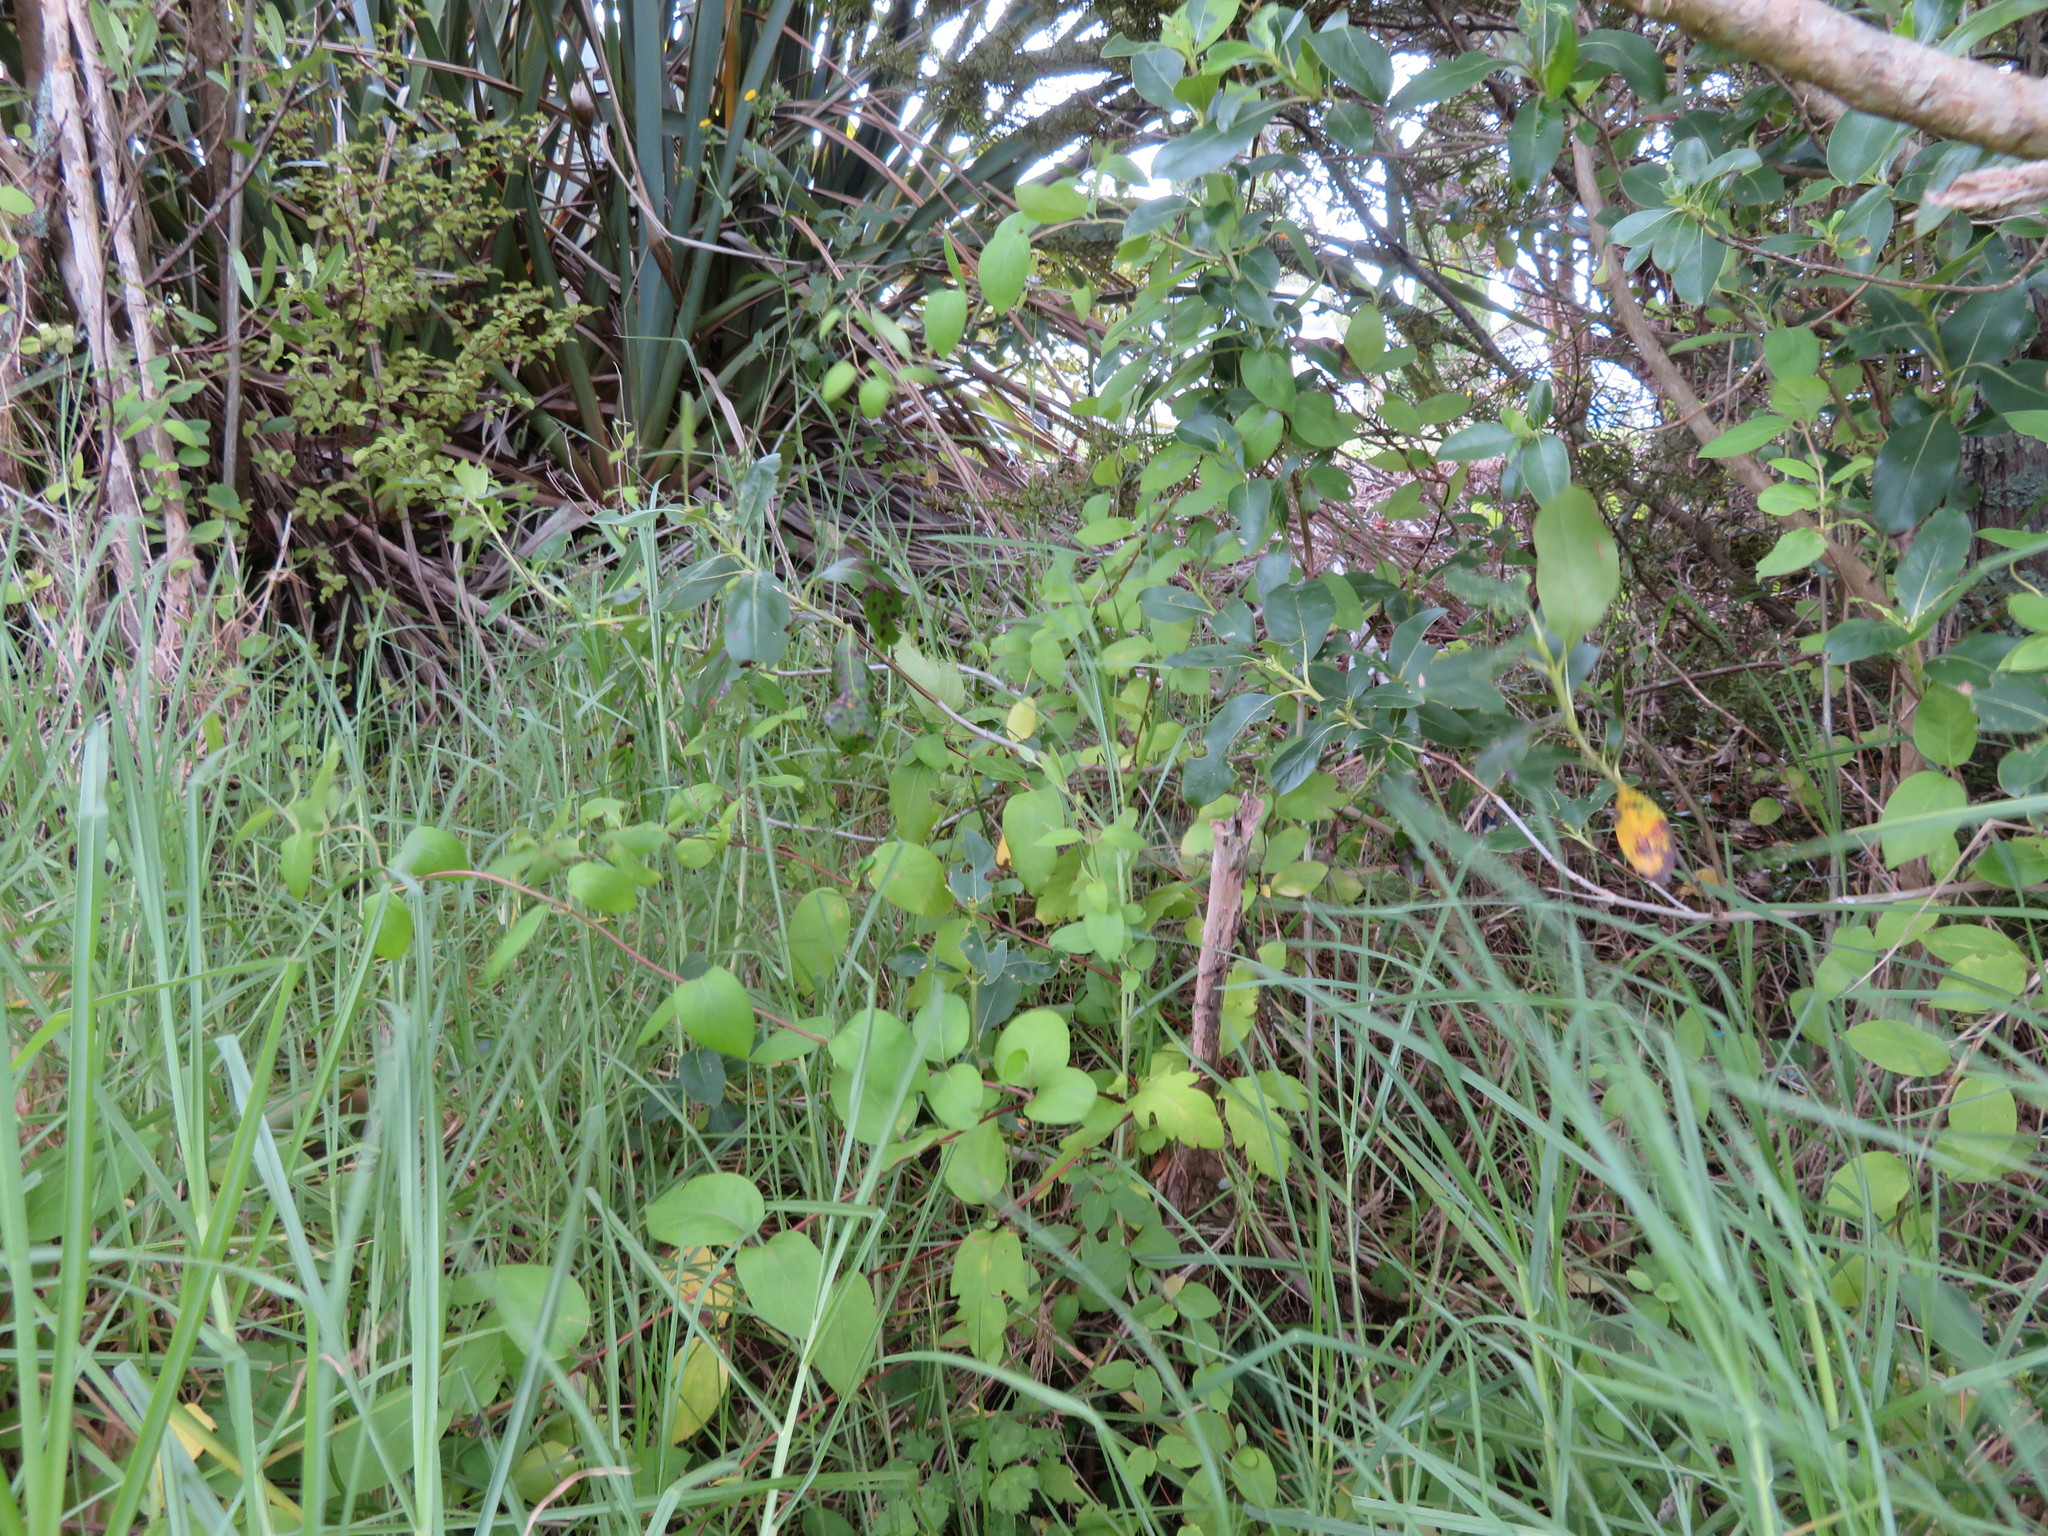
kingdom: Plantae
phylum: Tracheophyta
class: Magnoliopsida
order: Dipsacales
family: Caprifoliaceae
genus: Lonicera
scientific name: Lonicera japonica
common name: Japanese honeysuckle
